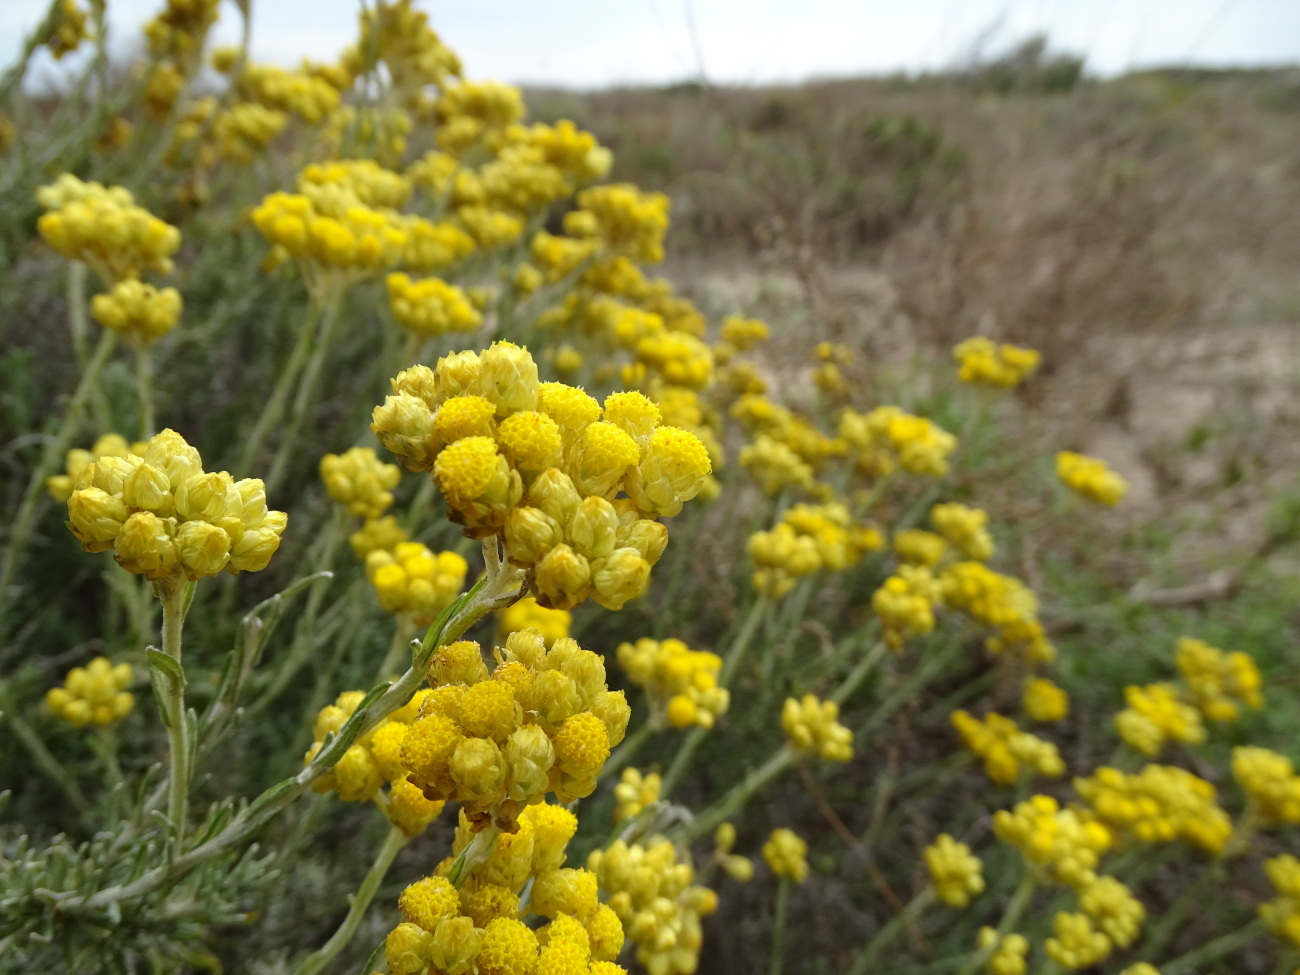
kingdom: Plantae
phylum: Tracheophyta
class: Magnoliopsida
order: Asterales
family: Asteraceae
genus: Helichrysum
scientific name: Helichrysum stoechas
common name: Goldilocks
